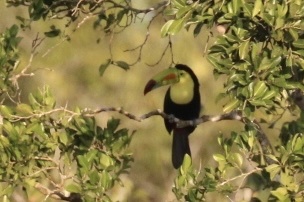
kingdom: Animalia
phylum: Chordata
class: Aves
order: Piciformes
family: Ramphastidae
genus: Ramphastos
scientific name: Ramphastos sulfuratus
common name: Keel-billed toucan
